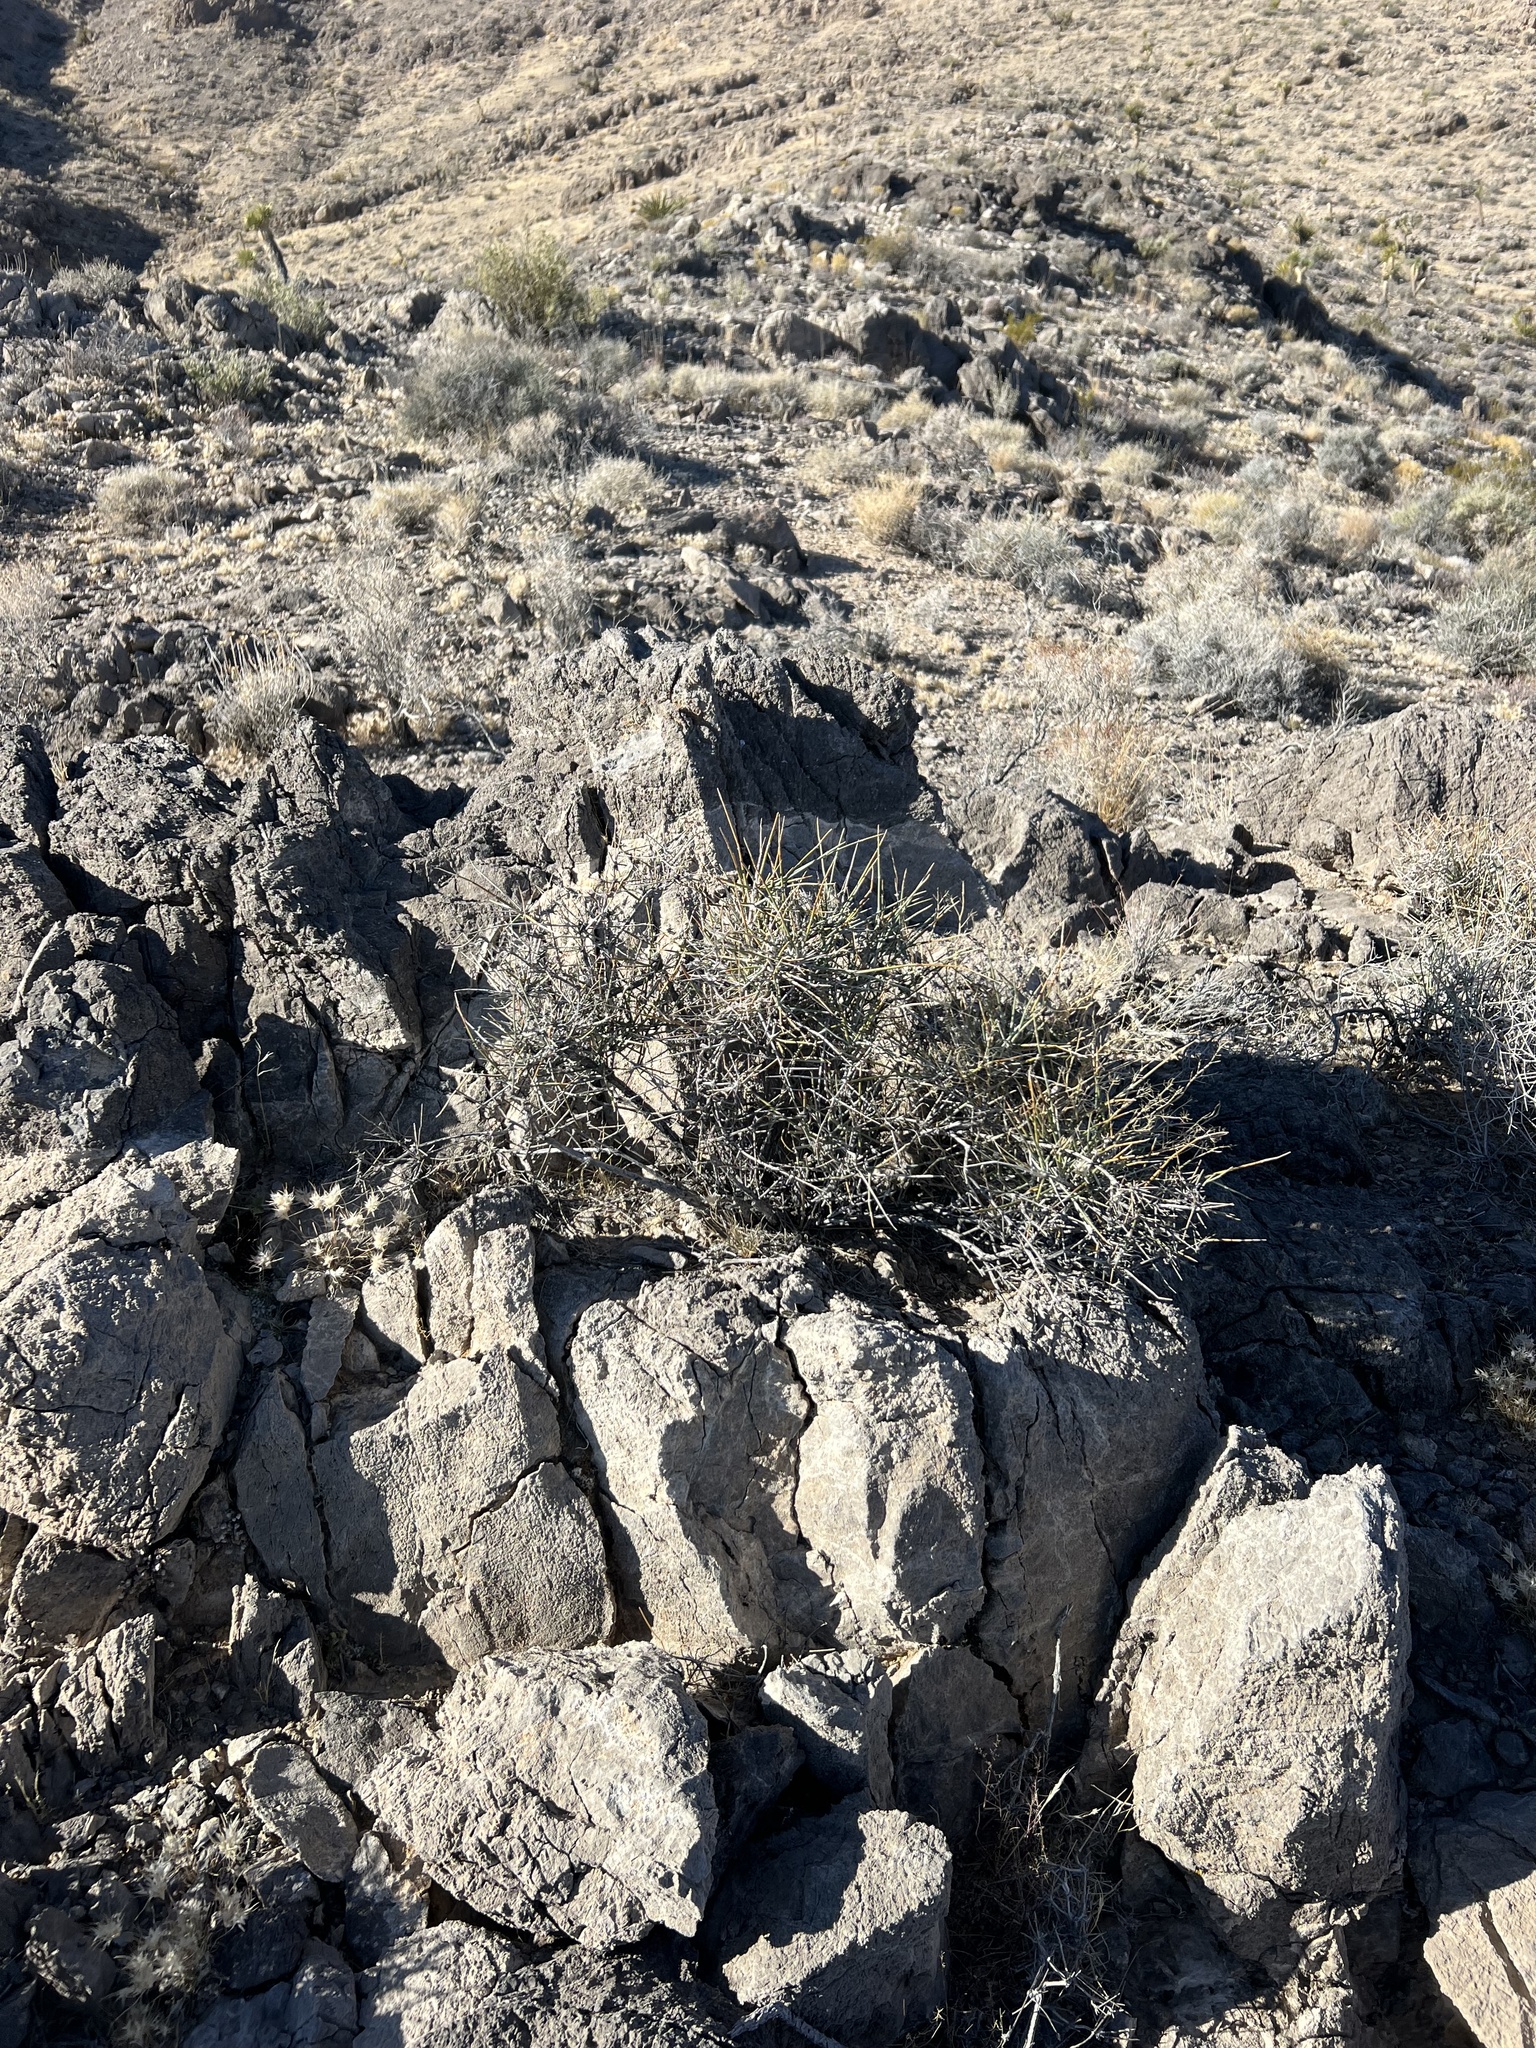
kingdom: Plantae
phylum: Tracheophyta
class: Gnetopsida
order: Ephedrales
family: Ephedraceae
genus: Ephedra
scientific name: Ephedra nevadensis
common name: Gray ephedra
